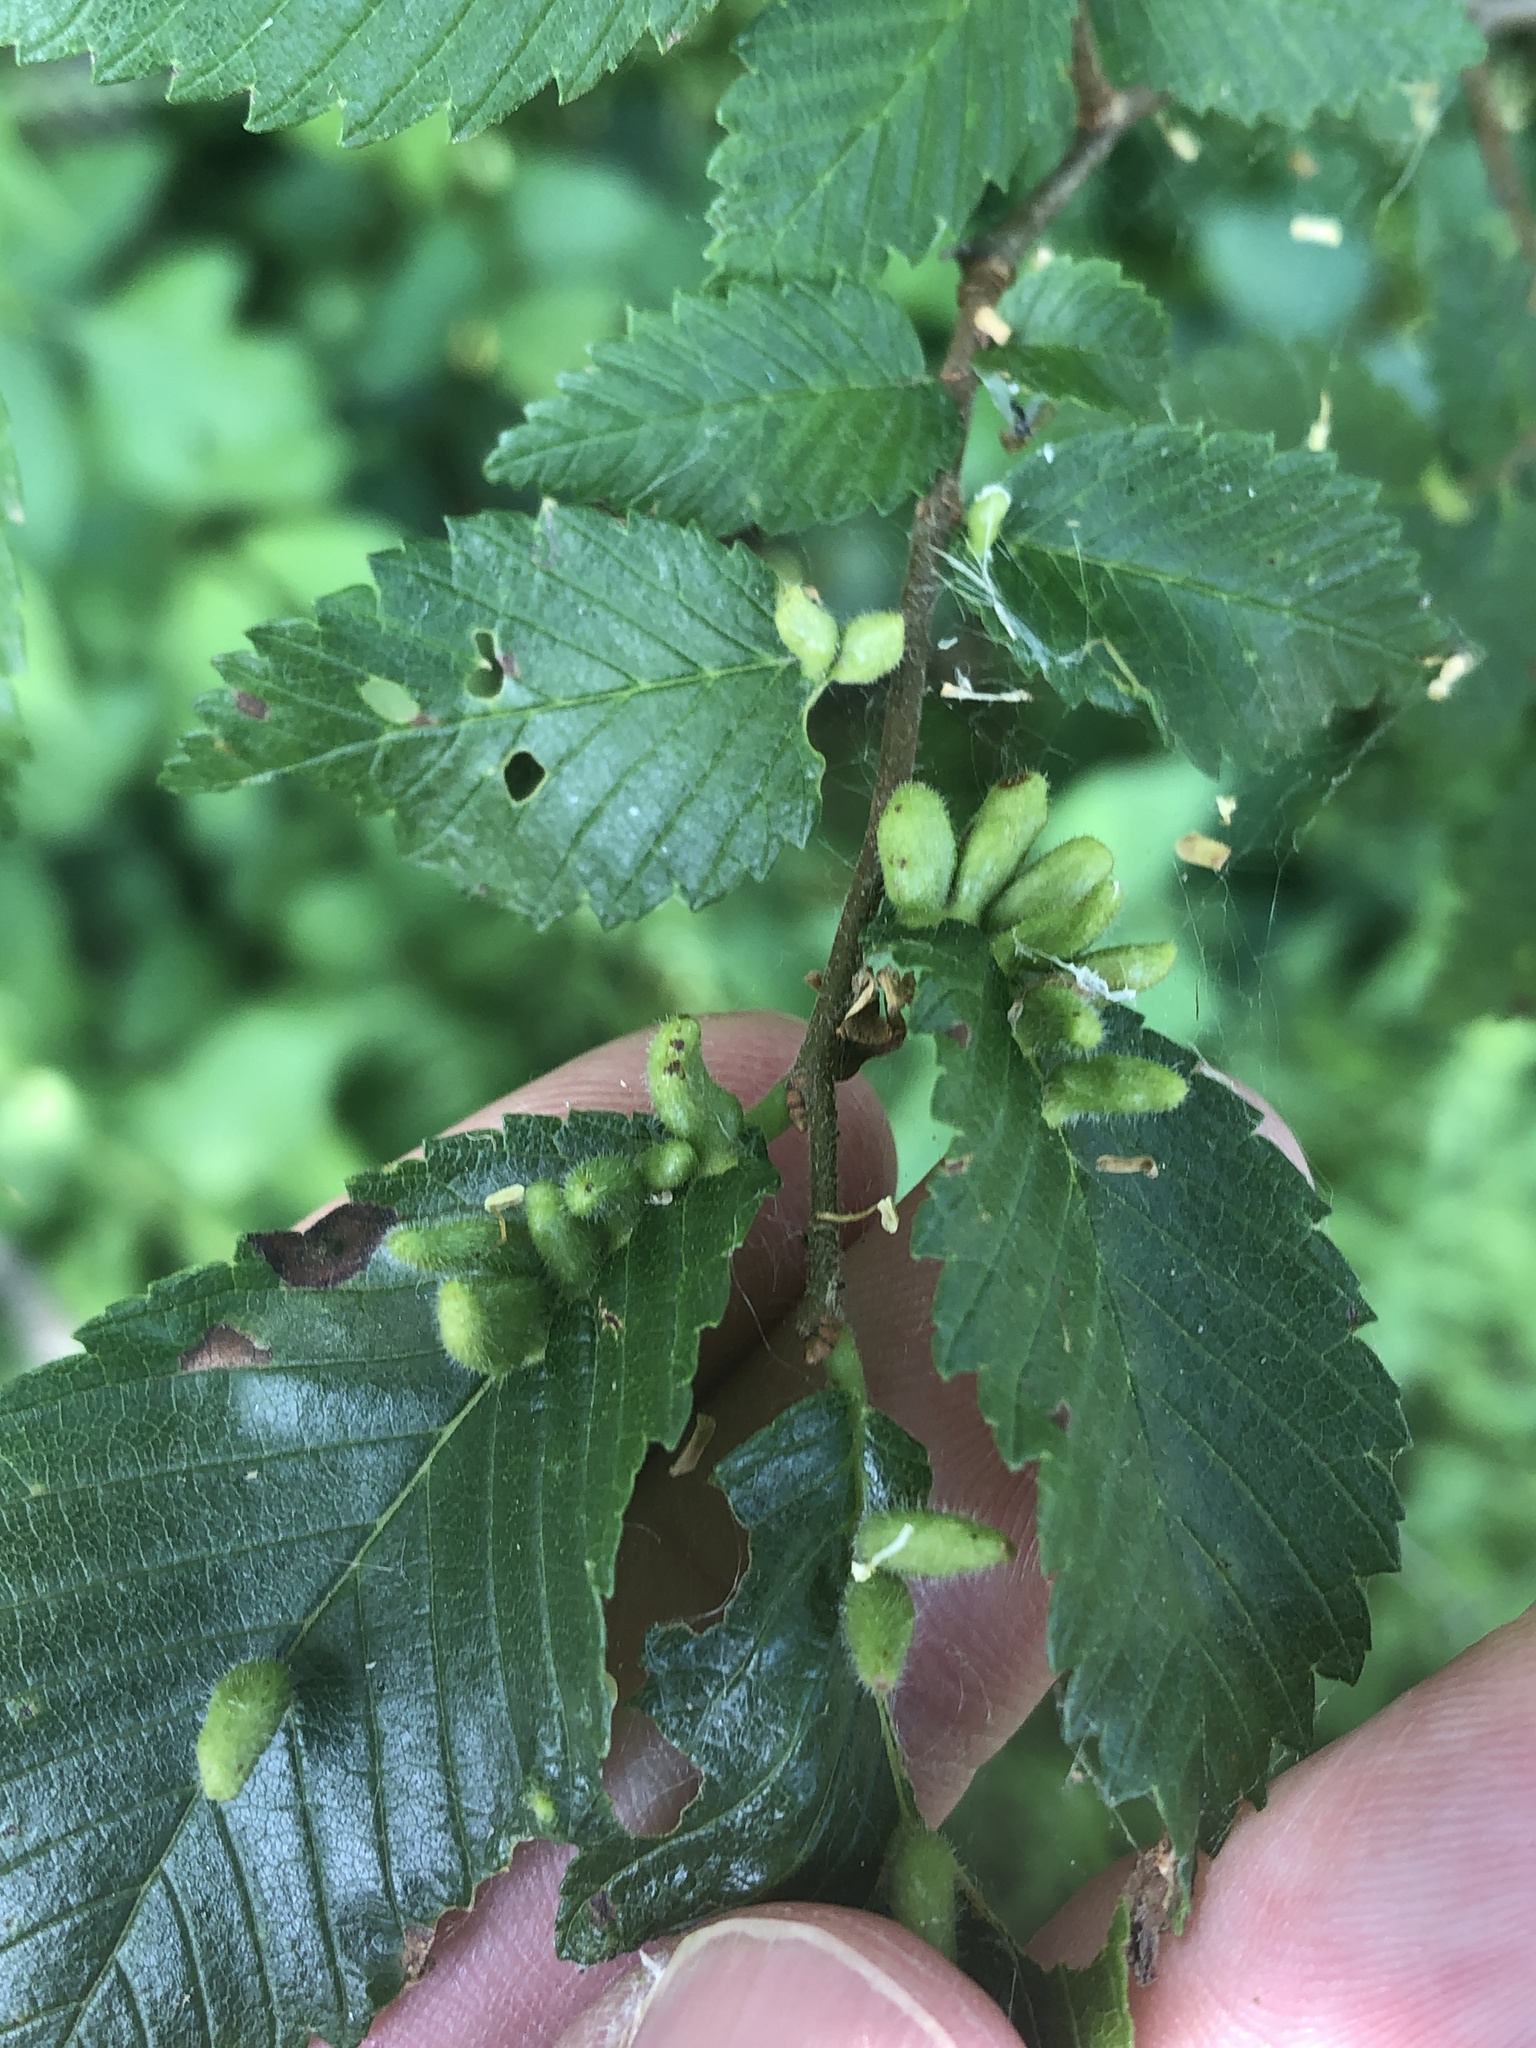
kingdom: Animalia
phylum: Arthropoda
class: Arachnida
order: Trombidiformes
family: Eriophyidae
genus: Aceria
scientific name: Aceria
